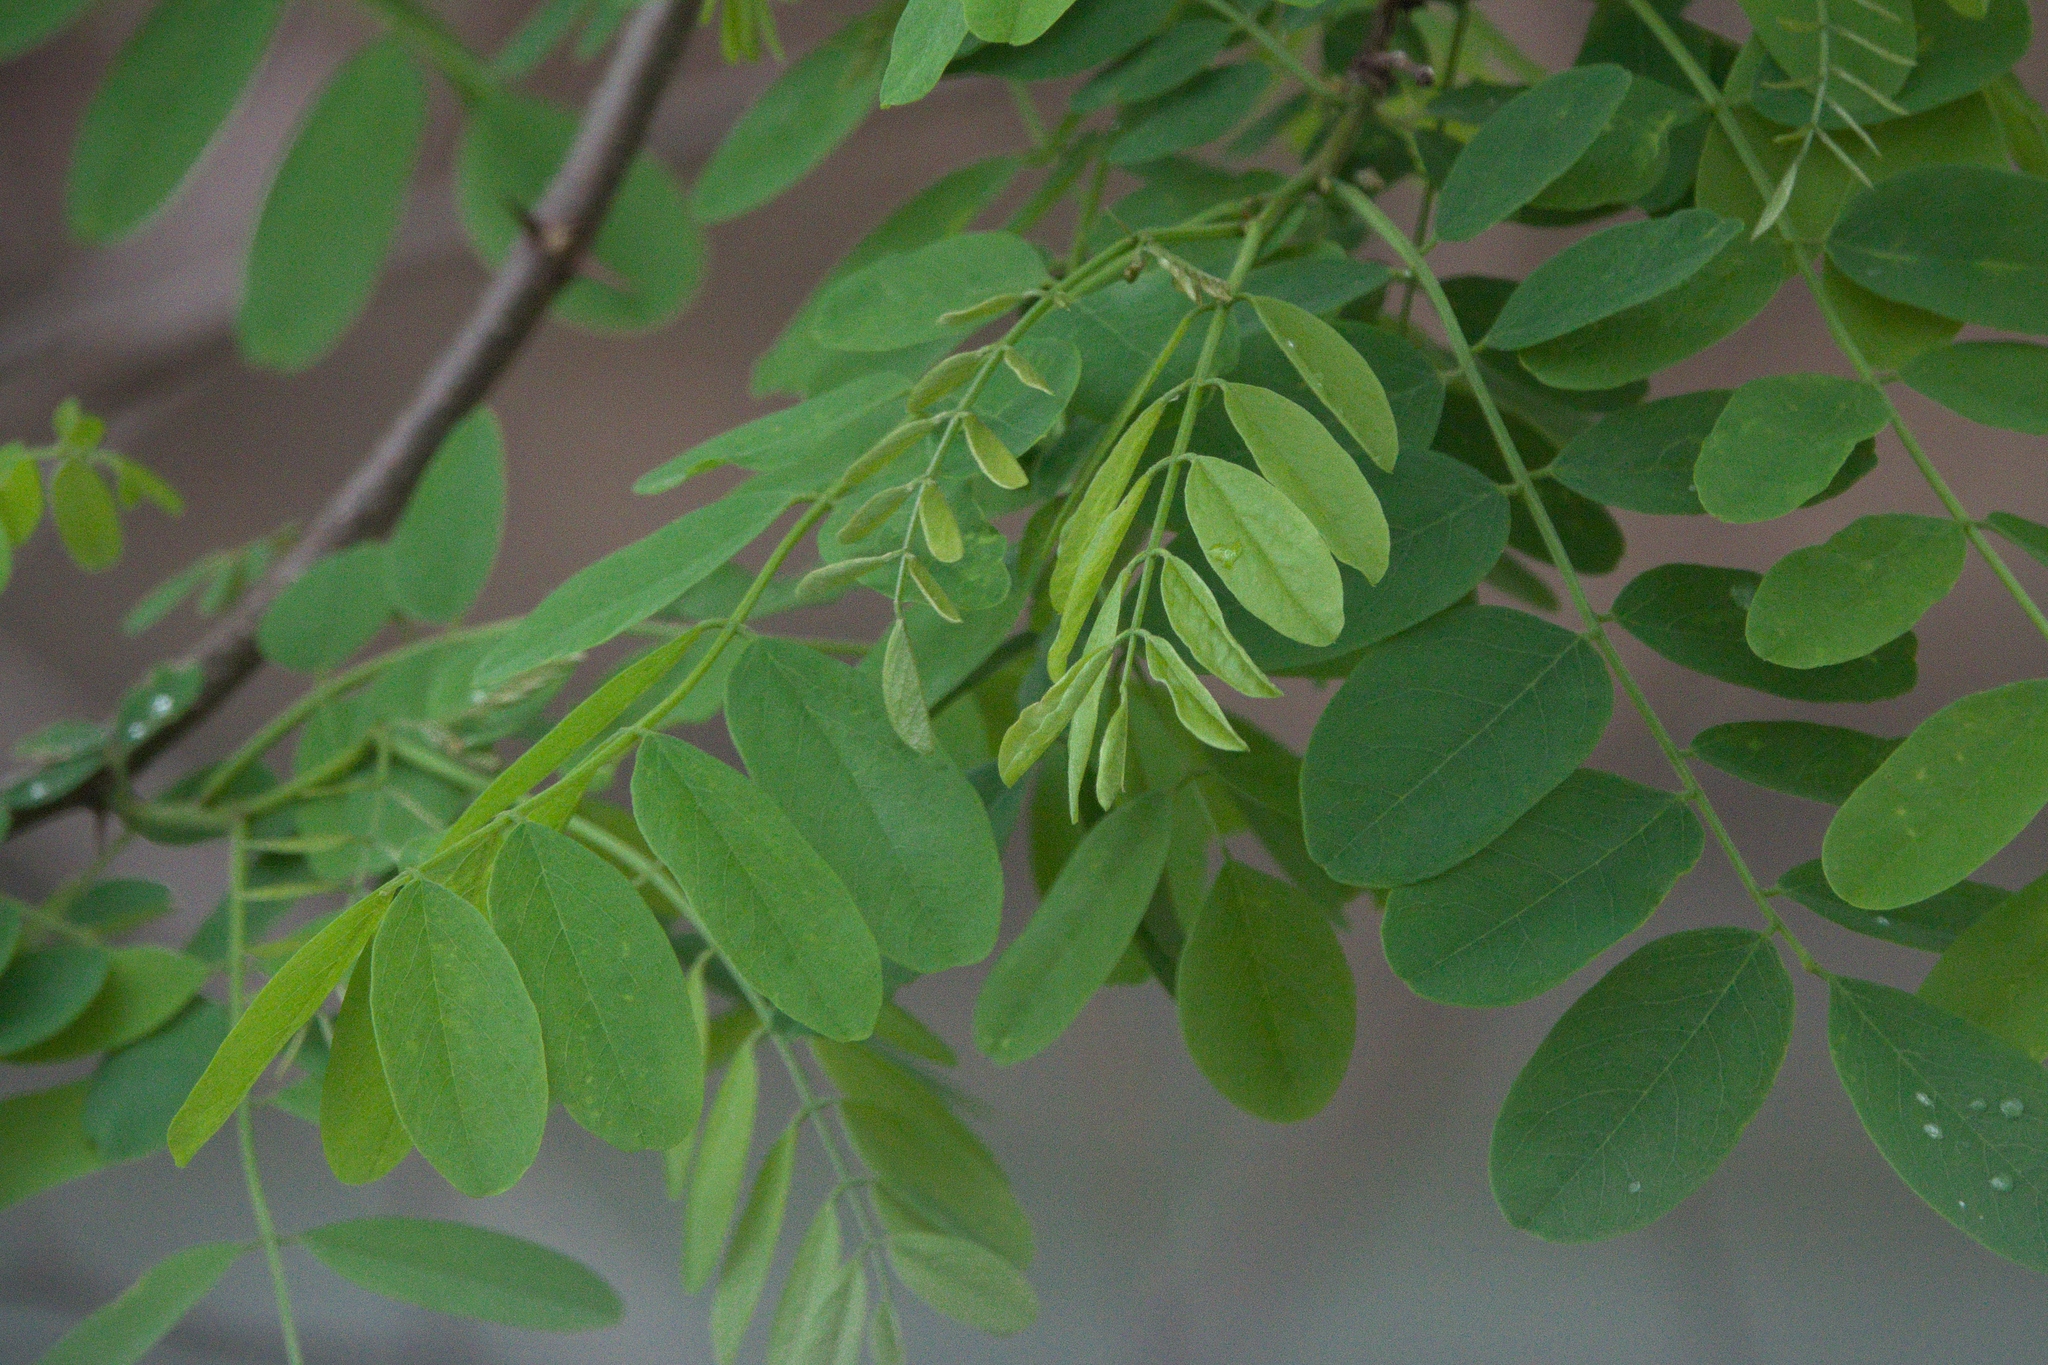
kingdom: Plantae
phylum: Tracheophyta
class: Magnoliopsida
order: Fabales
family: Fabaceae
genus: Robinia
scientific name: Robinia pseudoacacia
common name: Black locust
